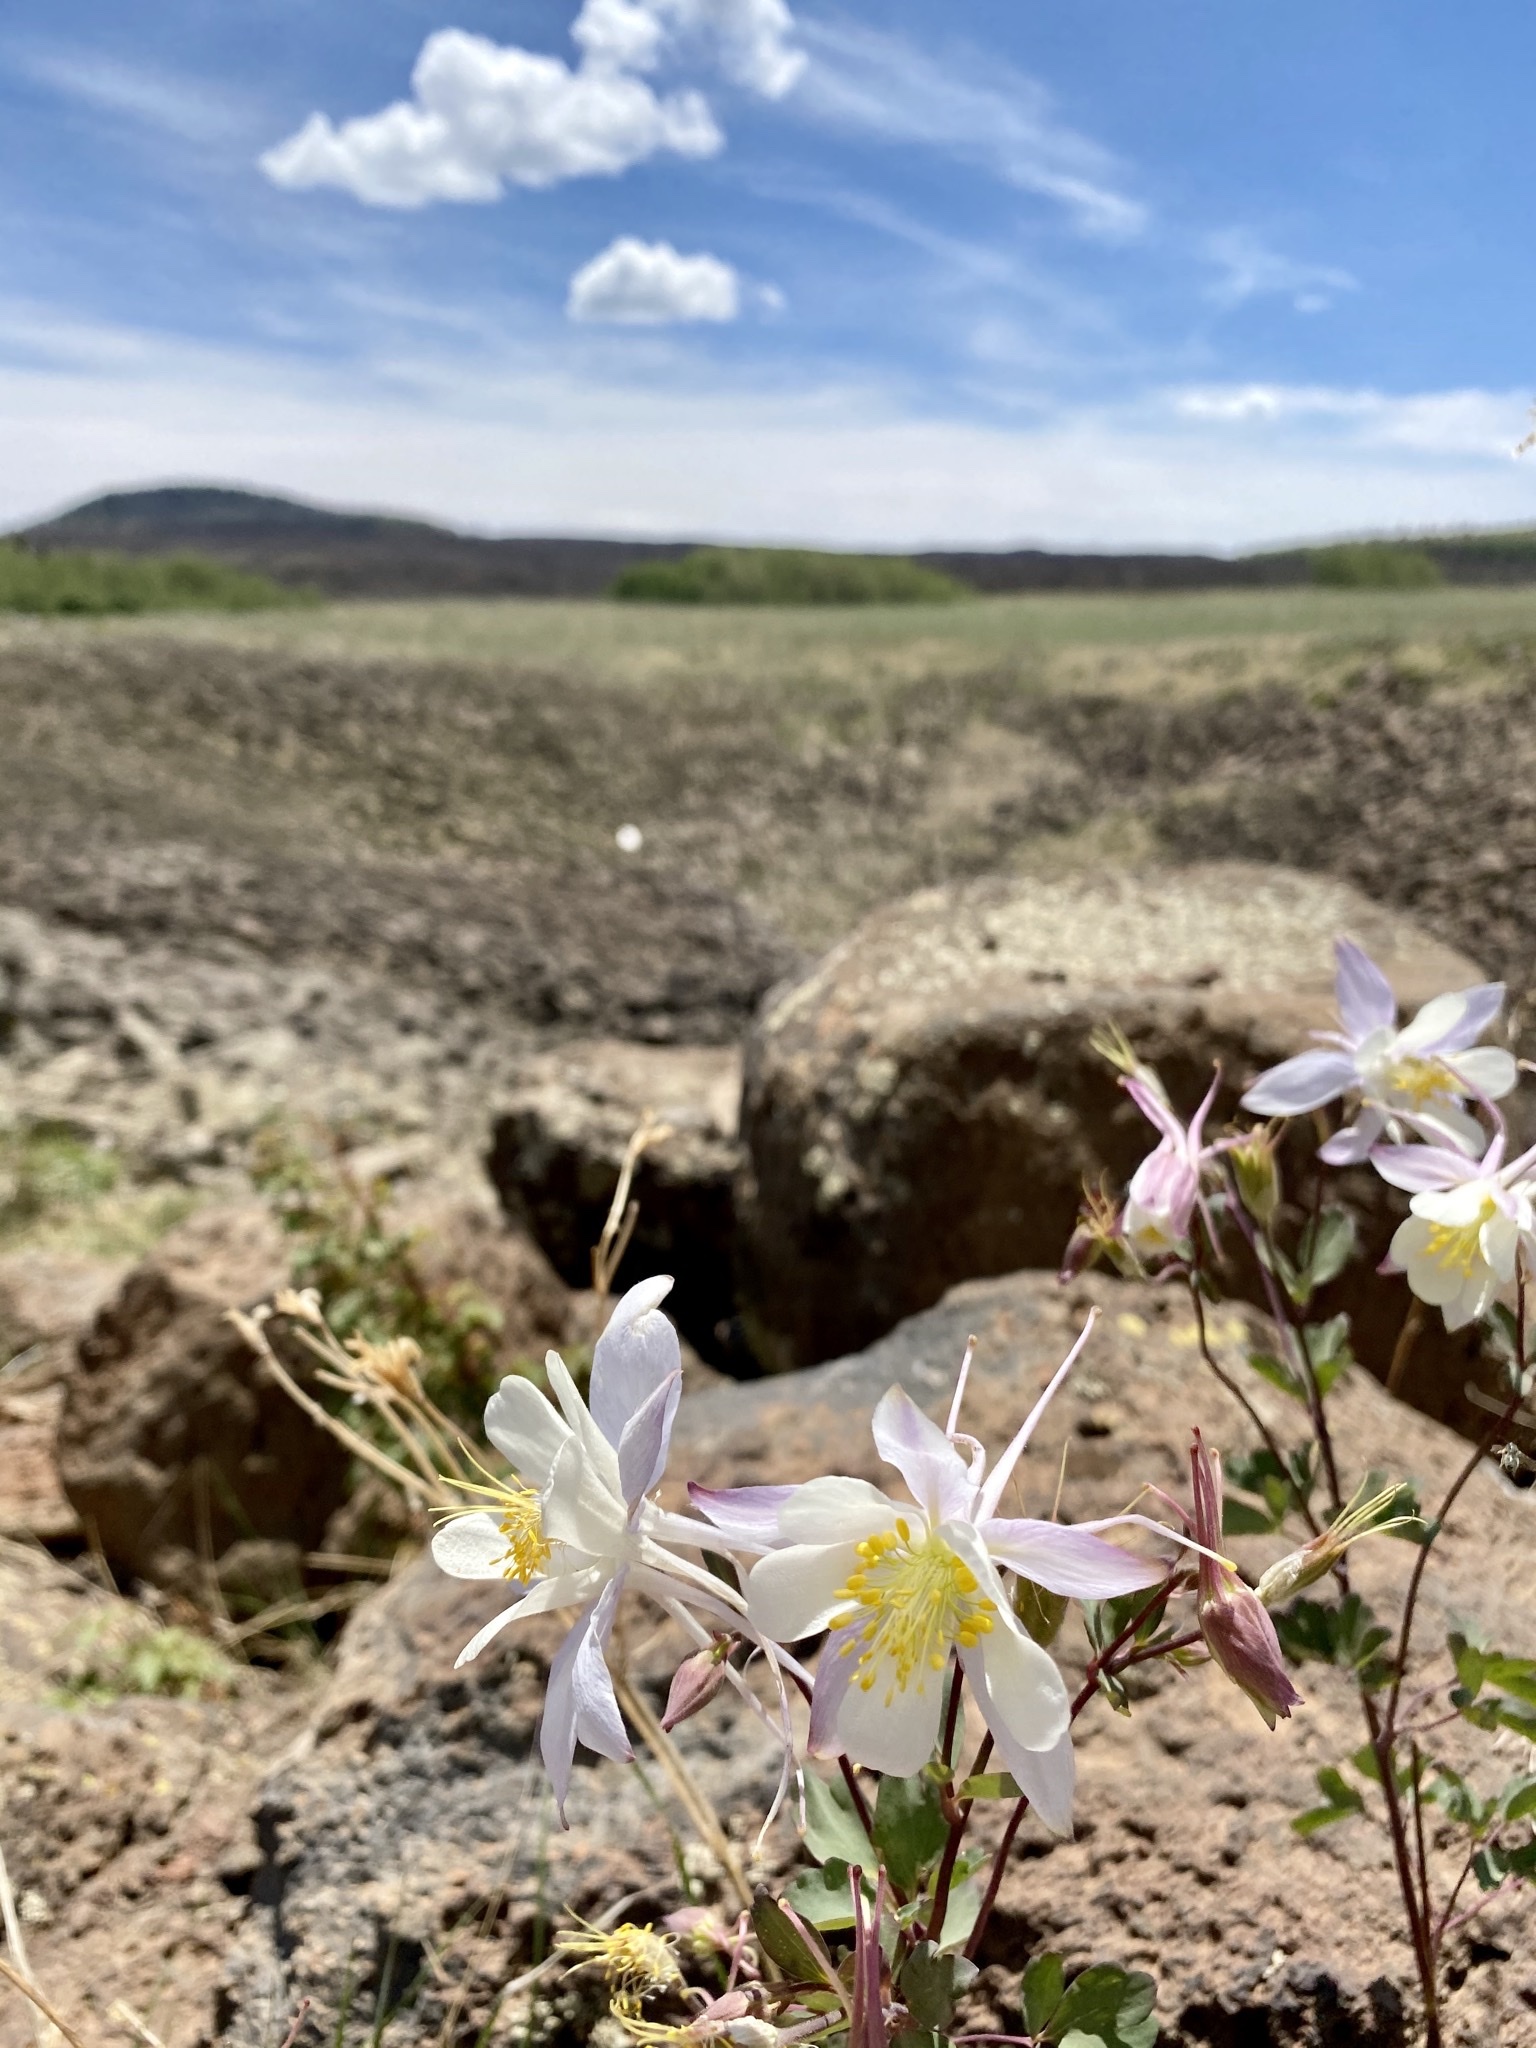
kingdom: Plantae
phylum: Tracheophyta
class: Magnoliopsida
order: Ranunculales
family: Ranunculaceae
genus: Aquilegia
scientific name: Aquilegia coerulea
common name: Rocky mountain columbine
